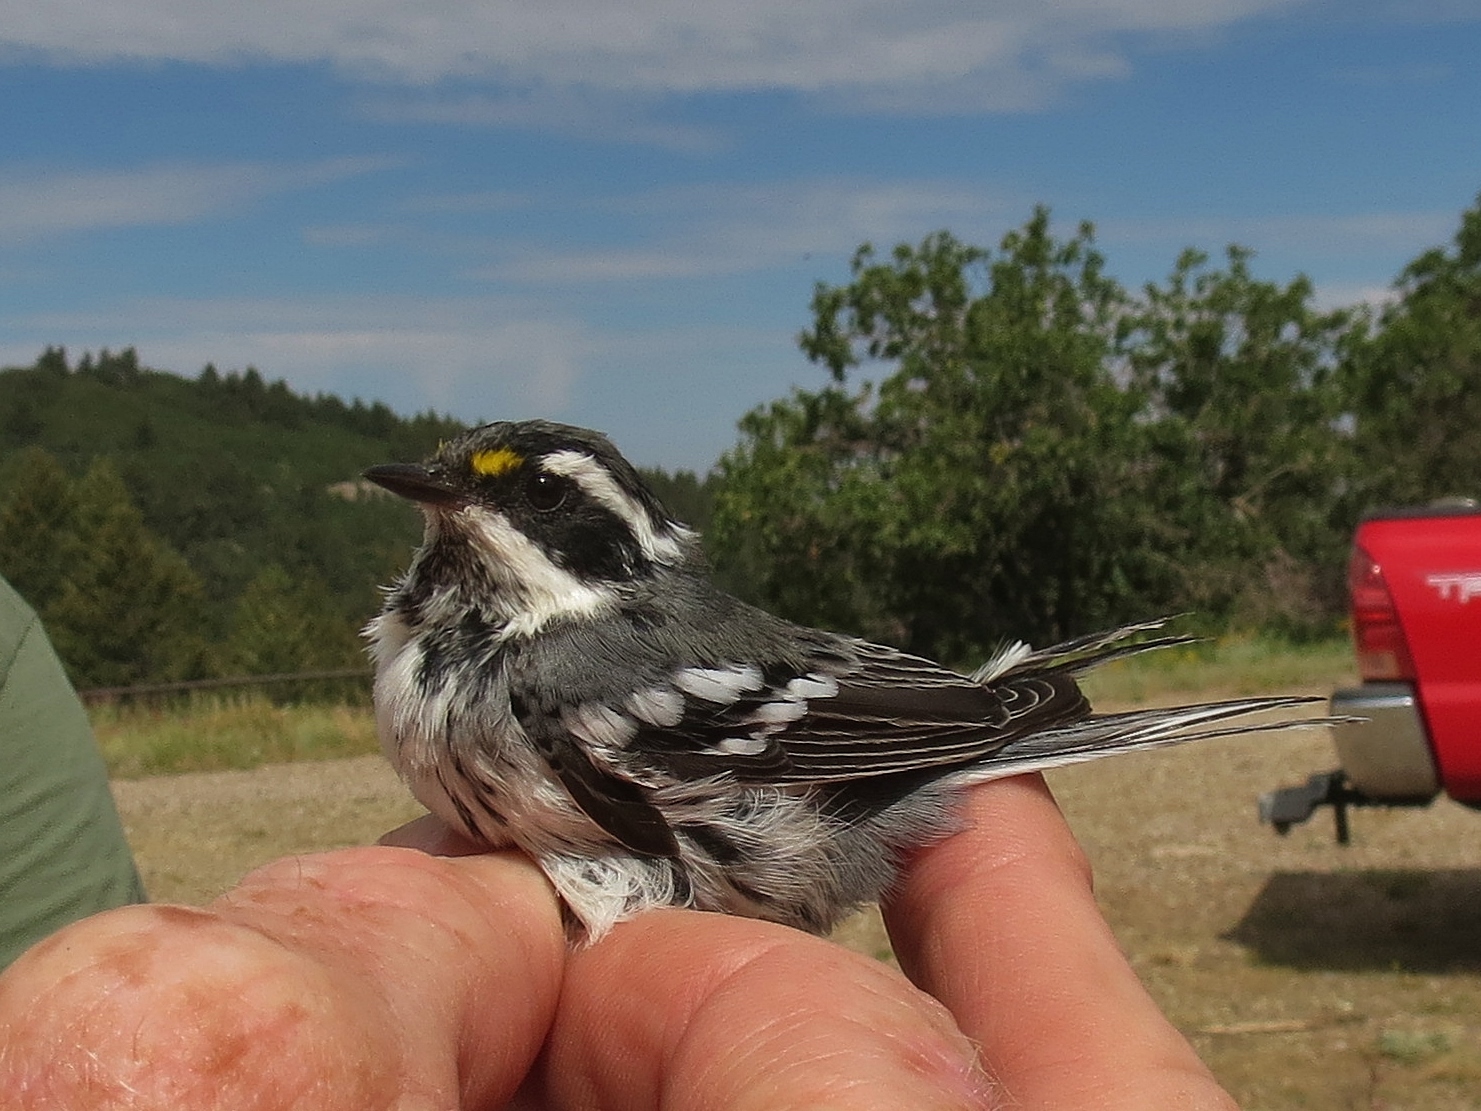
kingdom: Animalia
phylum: Chordata
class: Aves
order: Passeriformes
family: Parulidae
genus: Setophaga
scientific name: Setophaga nigrescens
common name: Black-throated gray warbler
